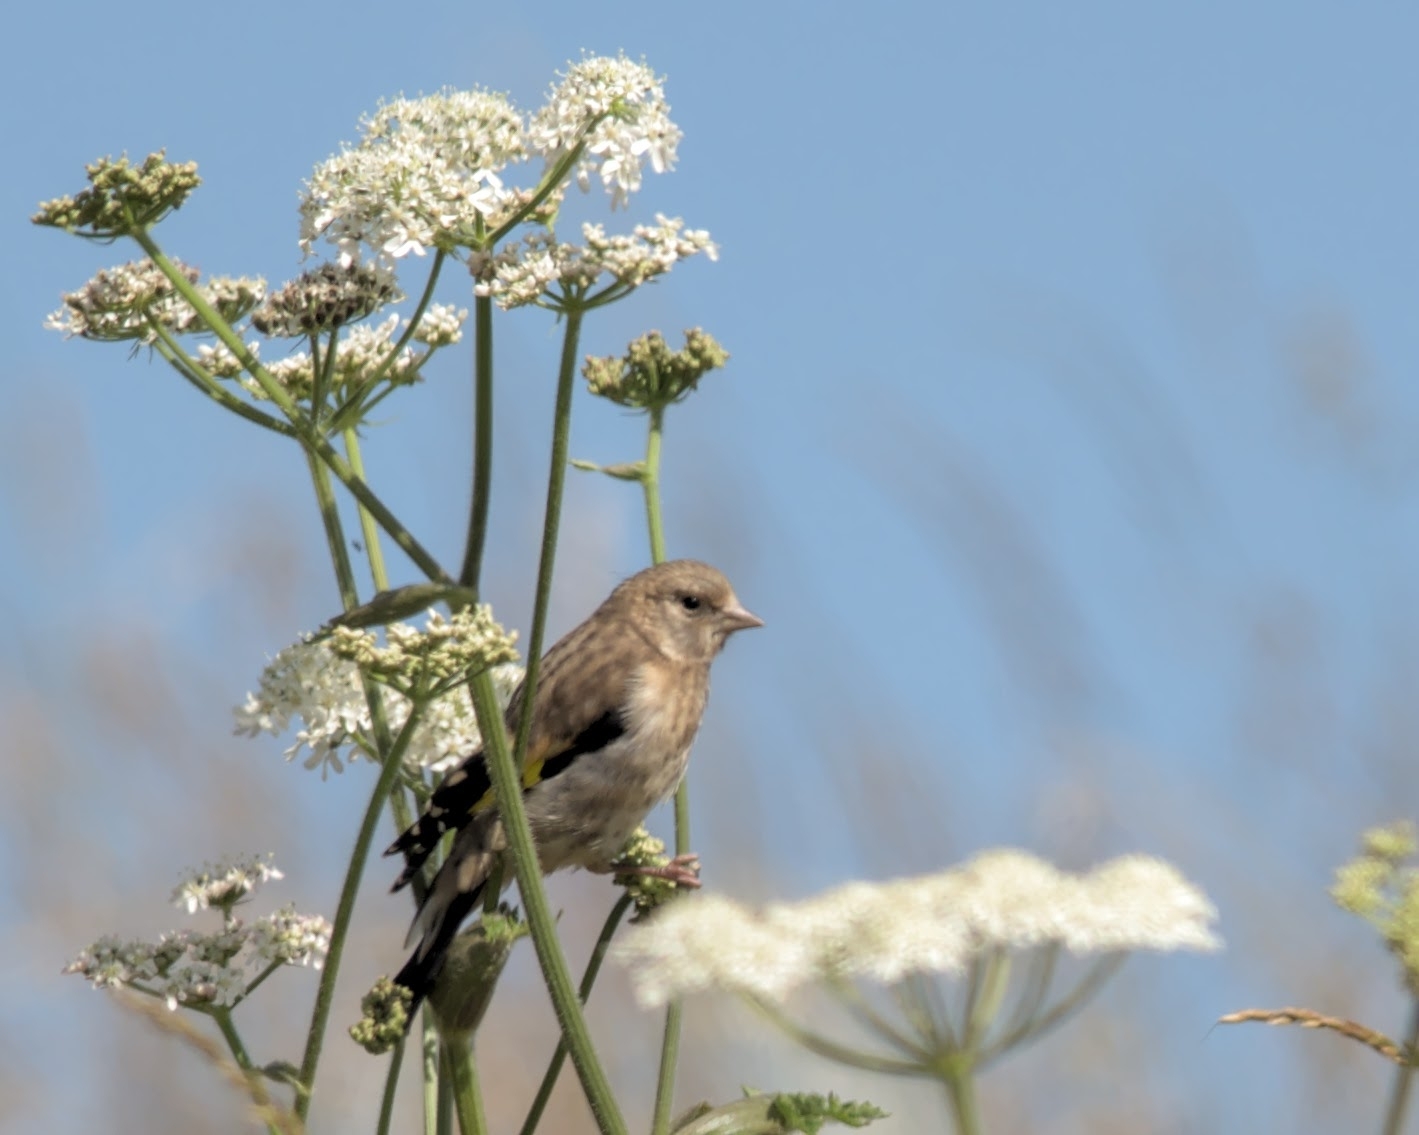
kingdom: Animalia
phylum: Chordata
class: Aves
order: Passeriformes
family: Fringillidae
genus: Carduelis
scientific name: Carduelis carduelis
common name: European goldfinch
